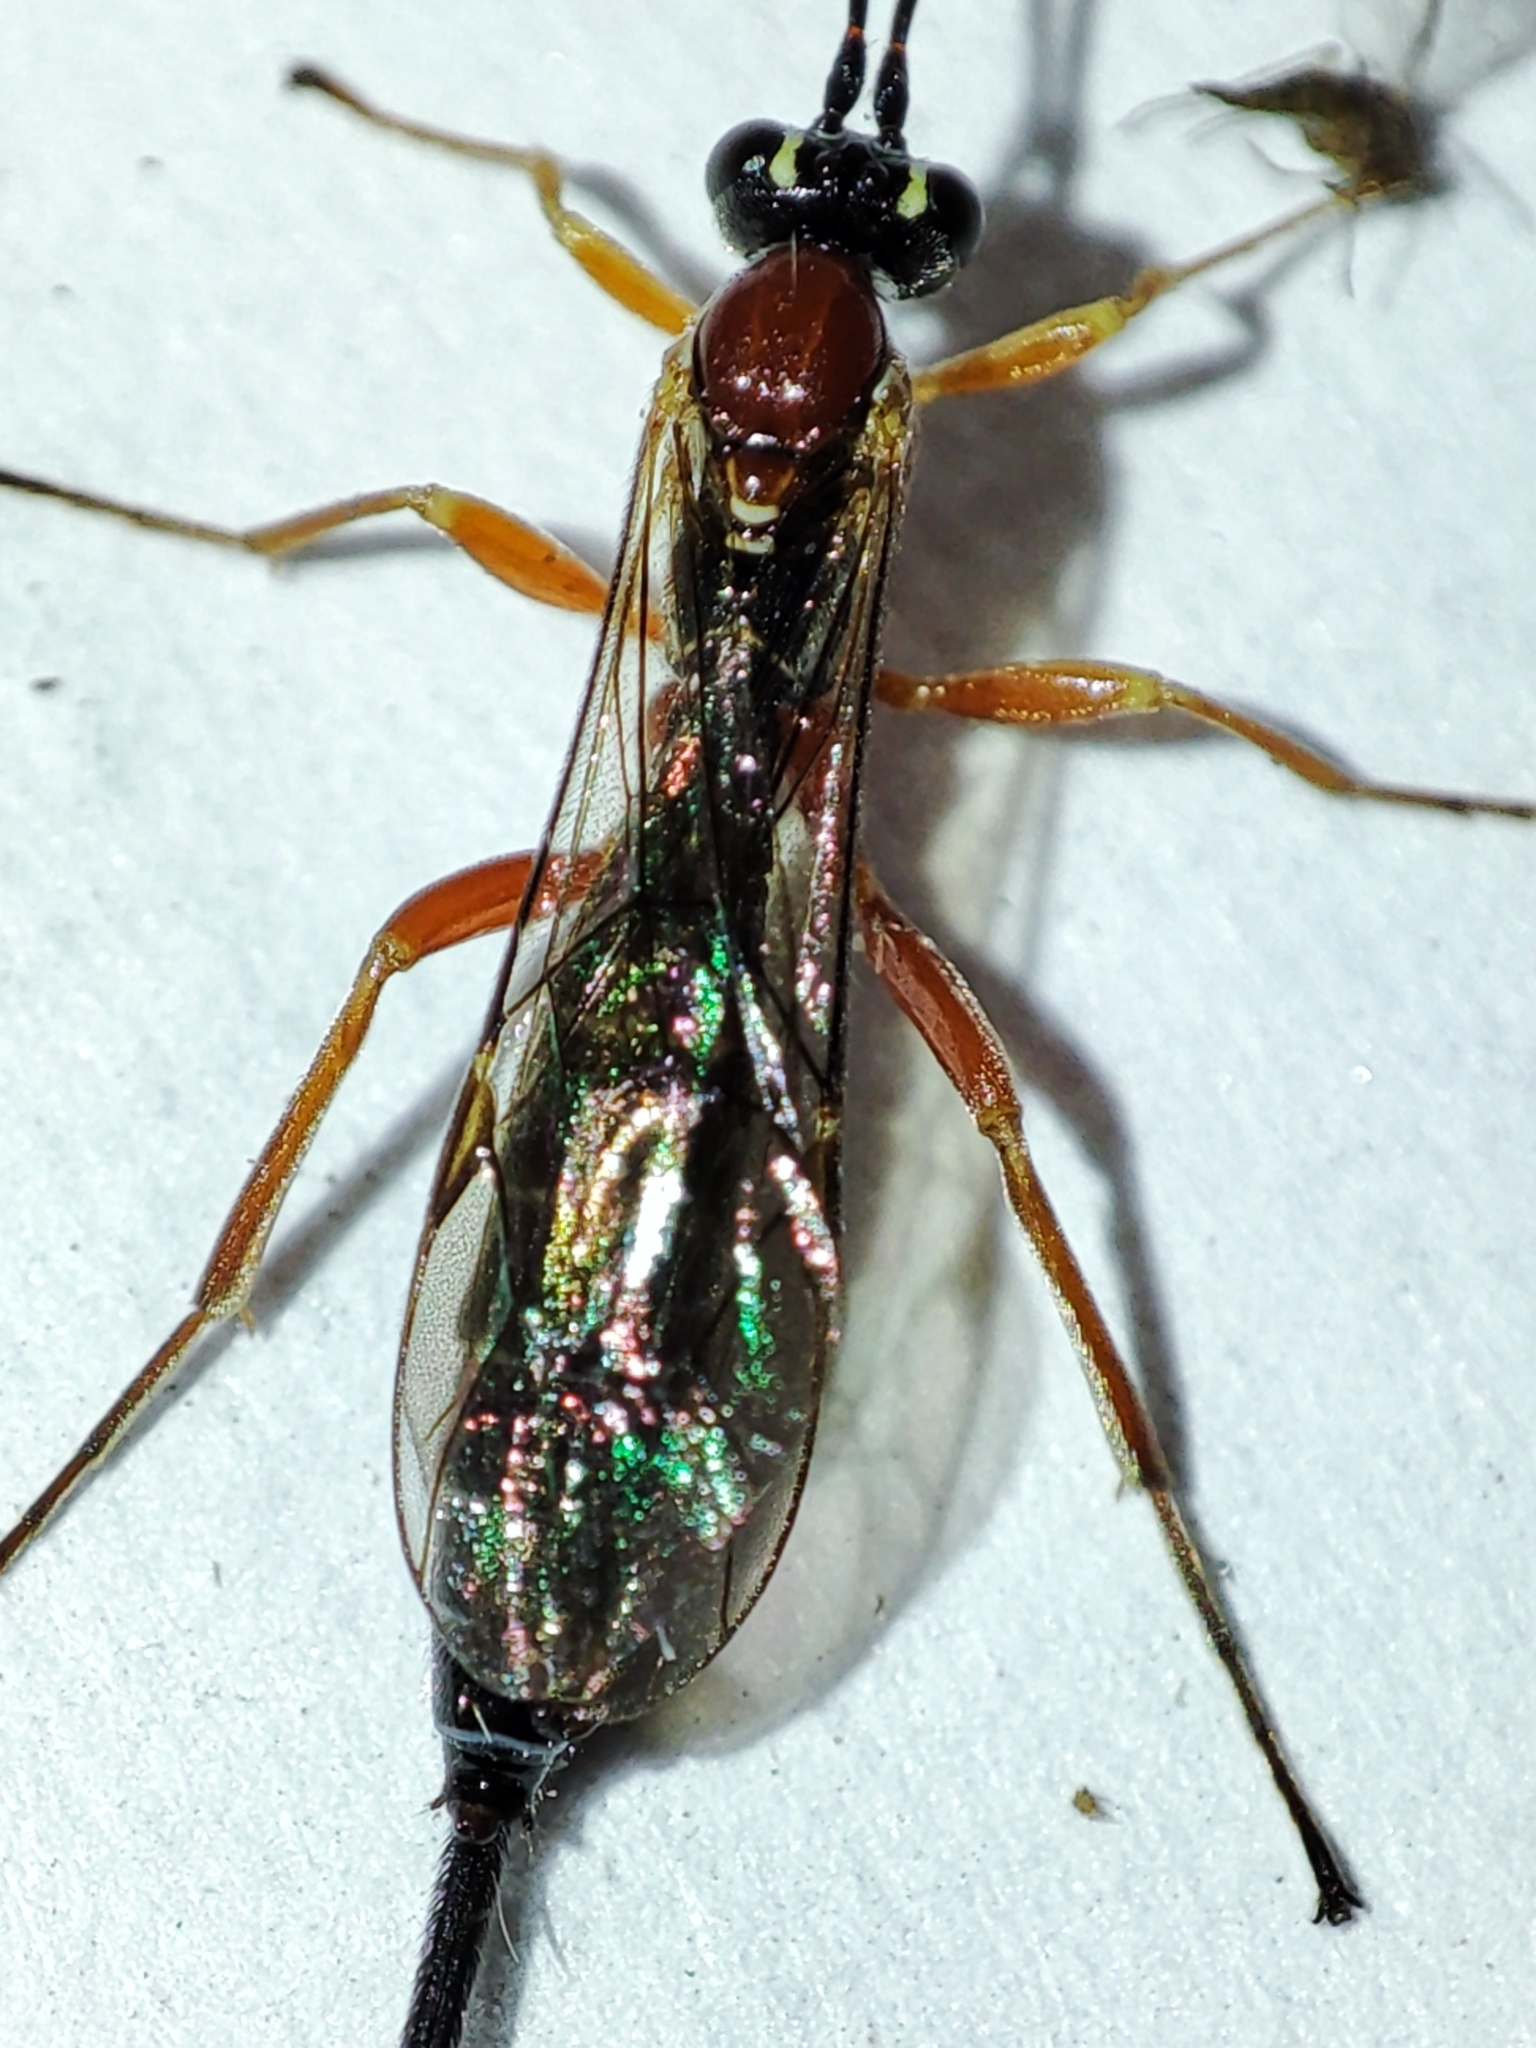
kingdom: Animalia
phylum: Arthropoda
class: Insecta
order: Hymenoptera
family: Ichneumonidae
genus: Perithous
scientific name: Perithous divinator
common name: Ichneumonid wasp
